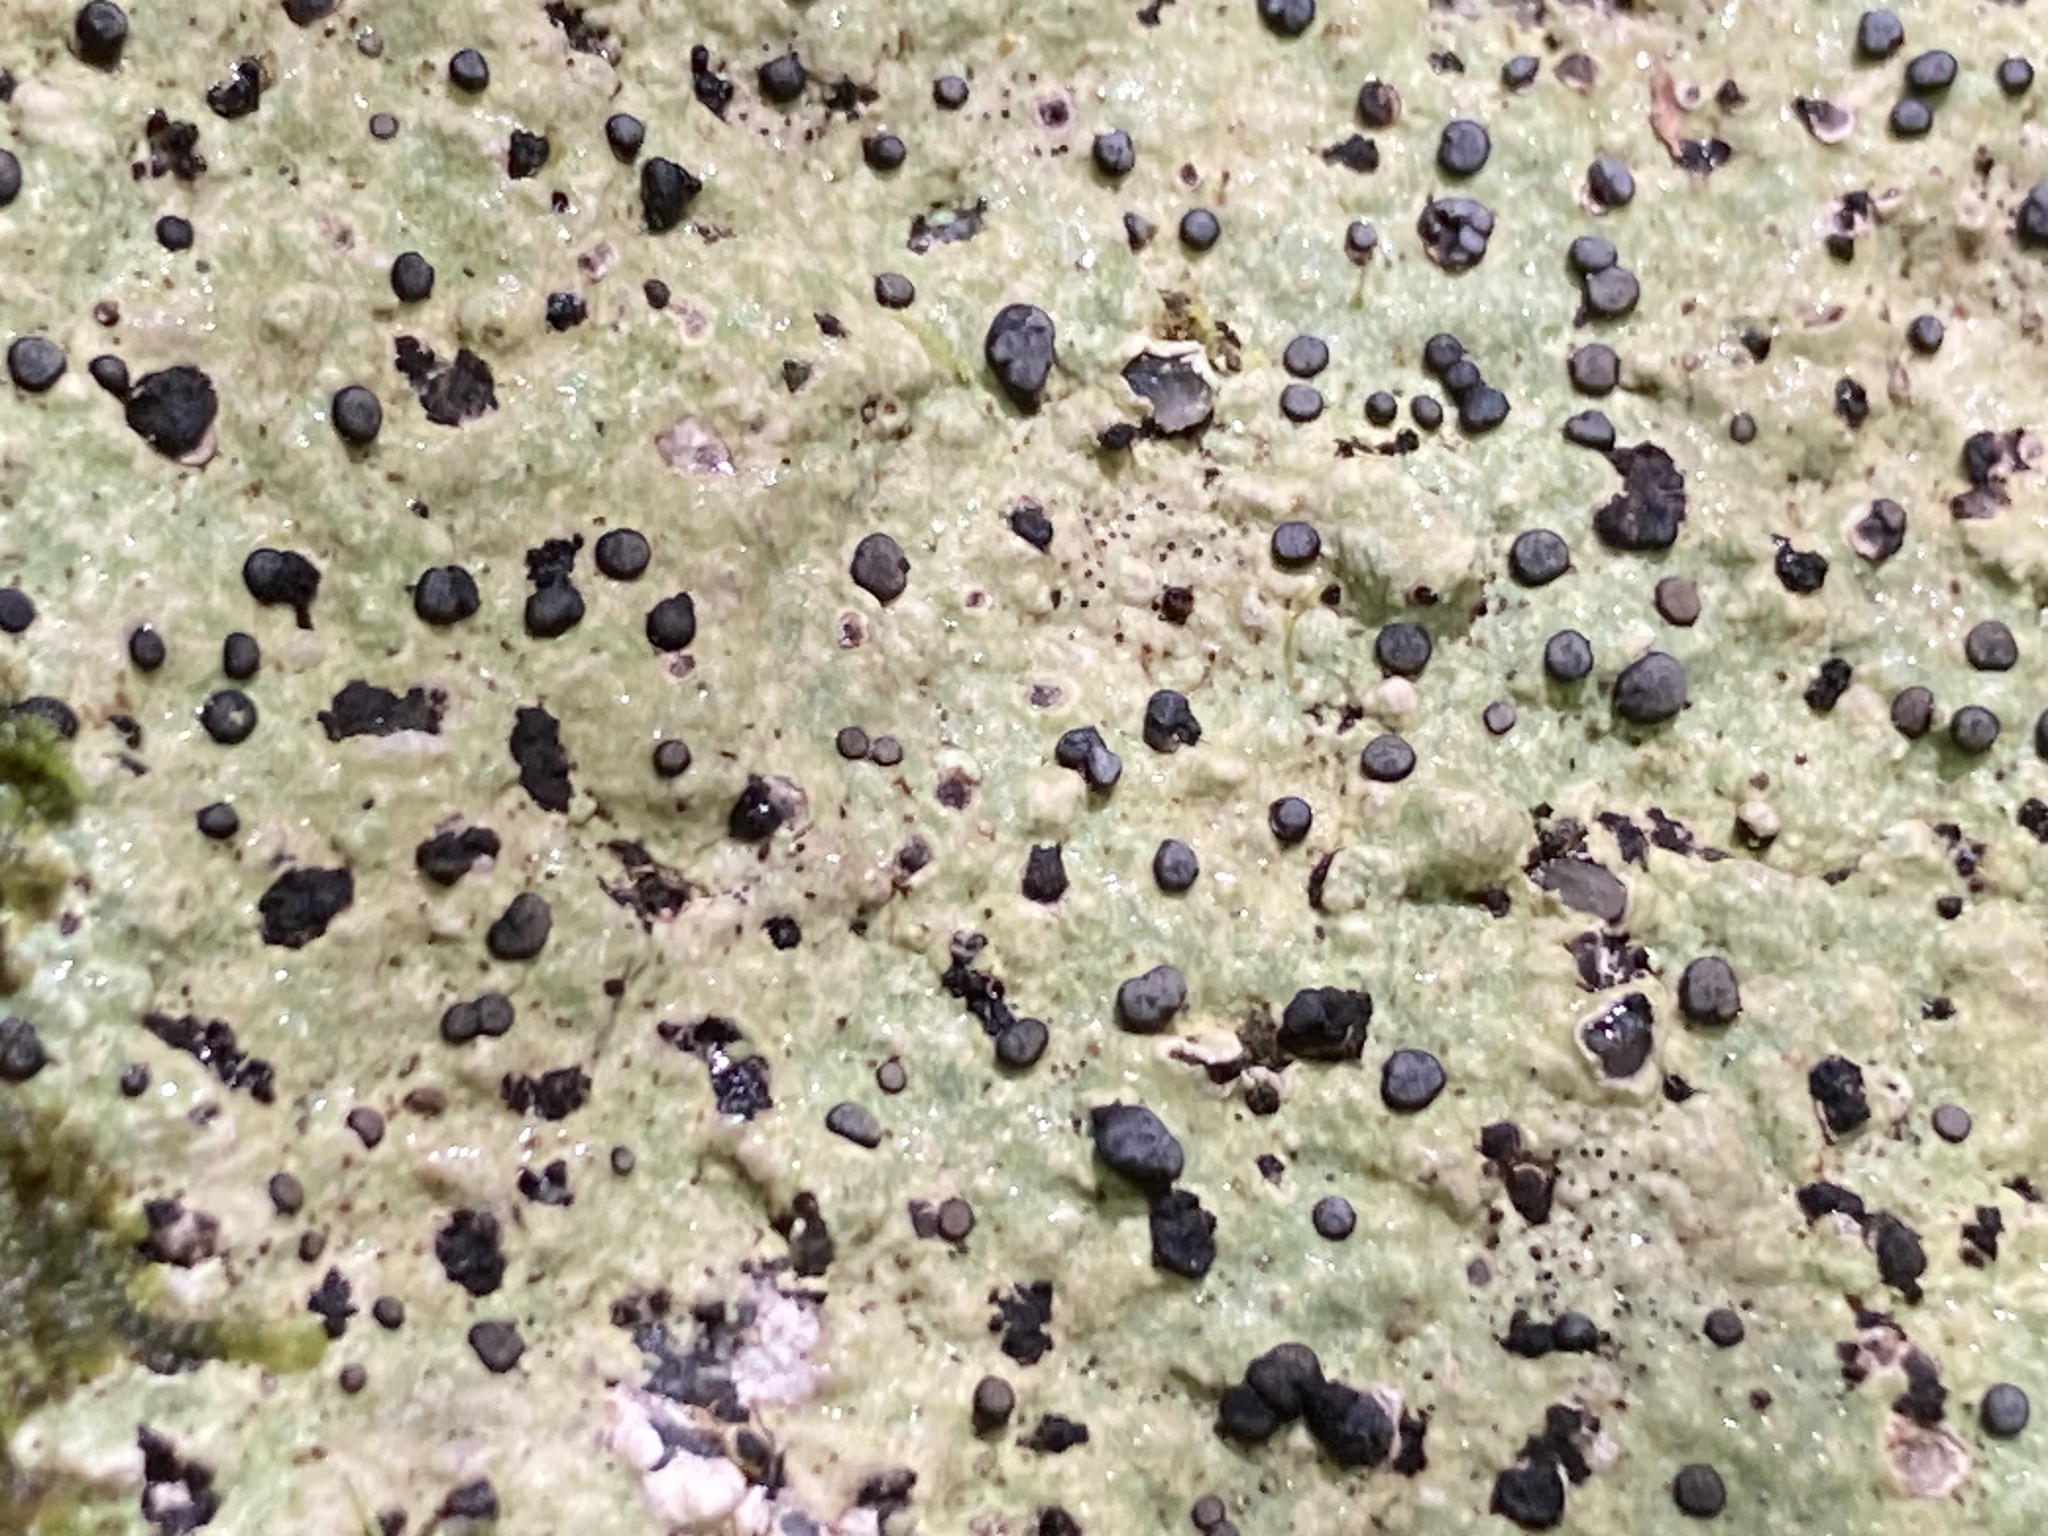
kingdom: Fungi
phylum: Ascomycota
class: Lecanoromycetes
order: Lecideales
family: Lecideaceae
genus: Porpidia
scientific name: Porpidia albocaerulescens
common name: Smokey-eyed boulder lichen
